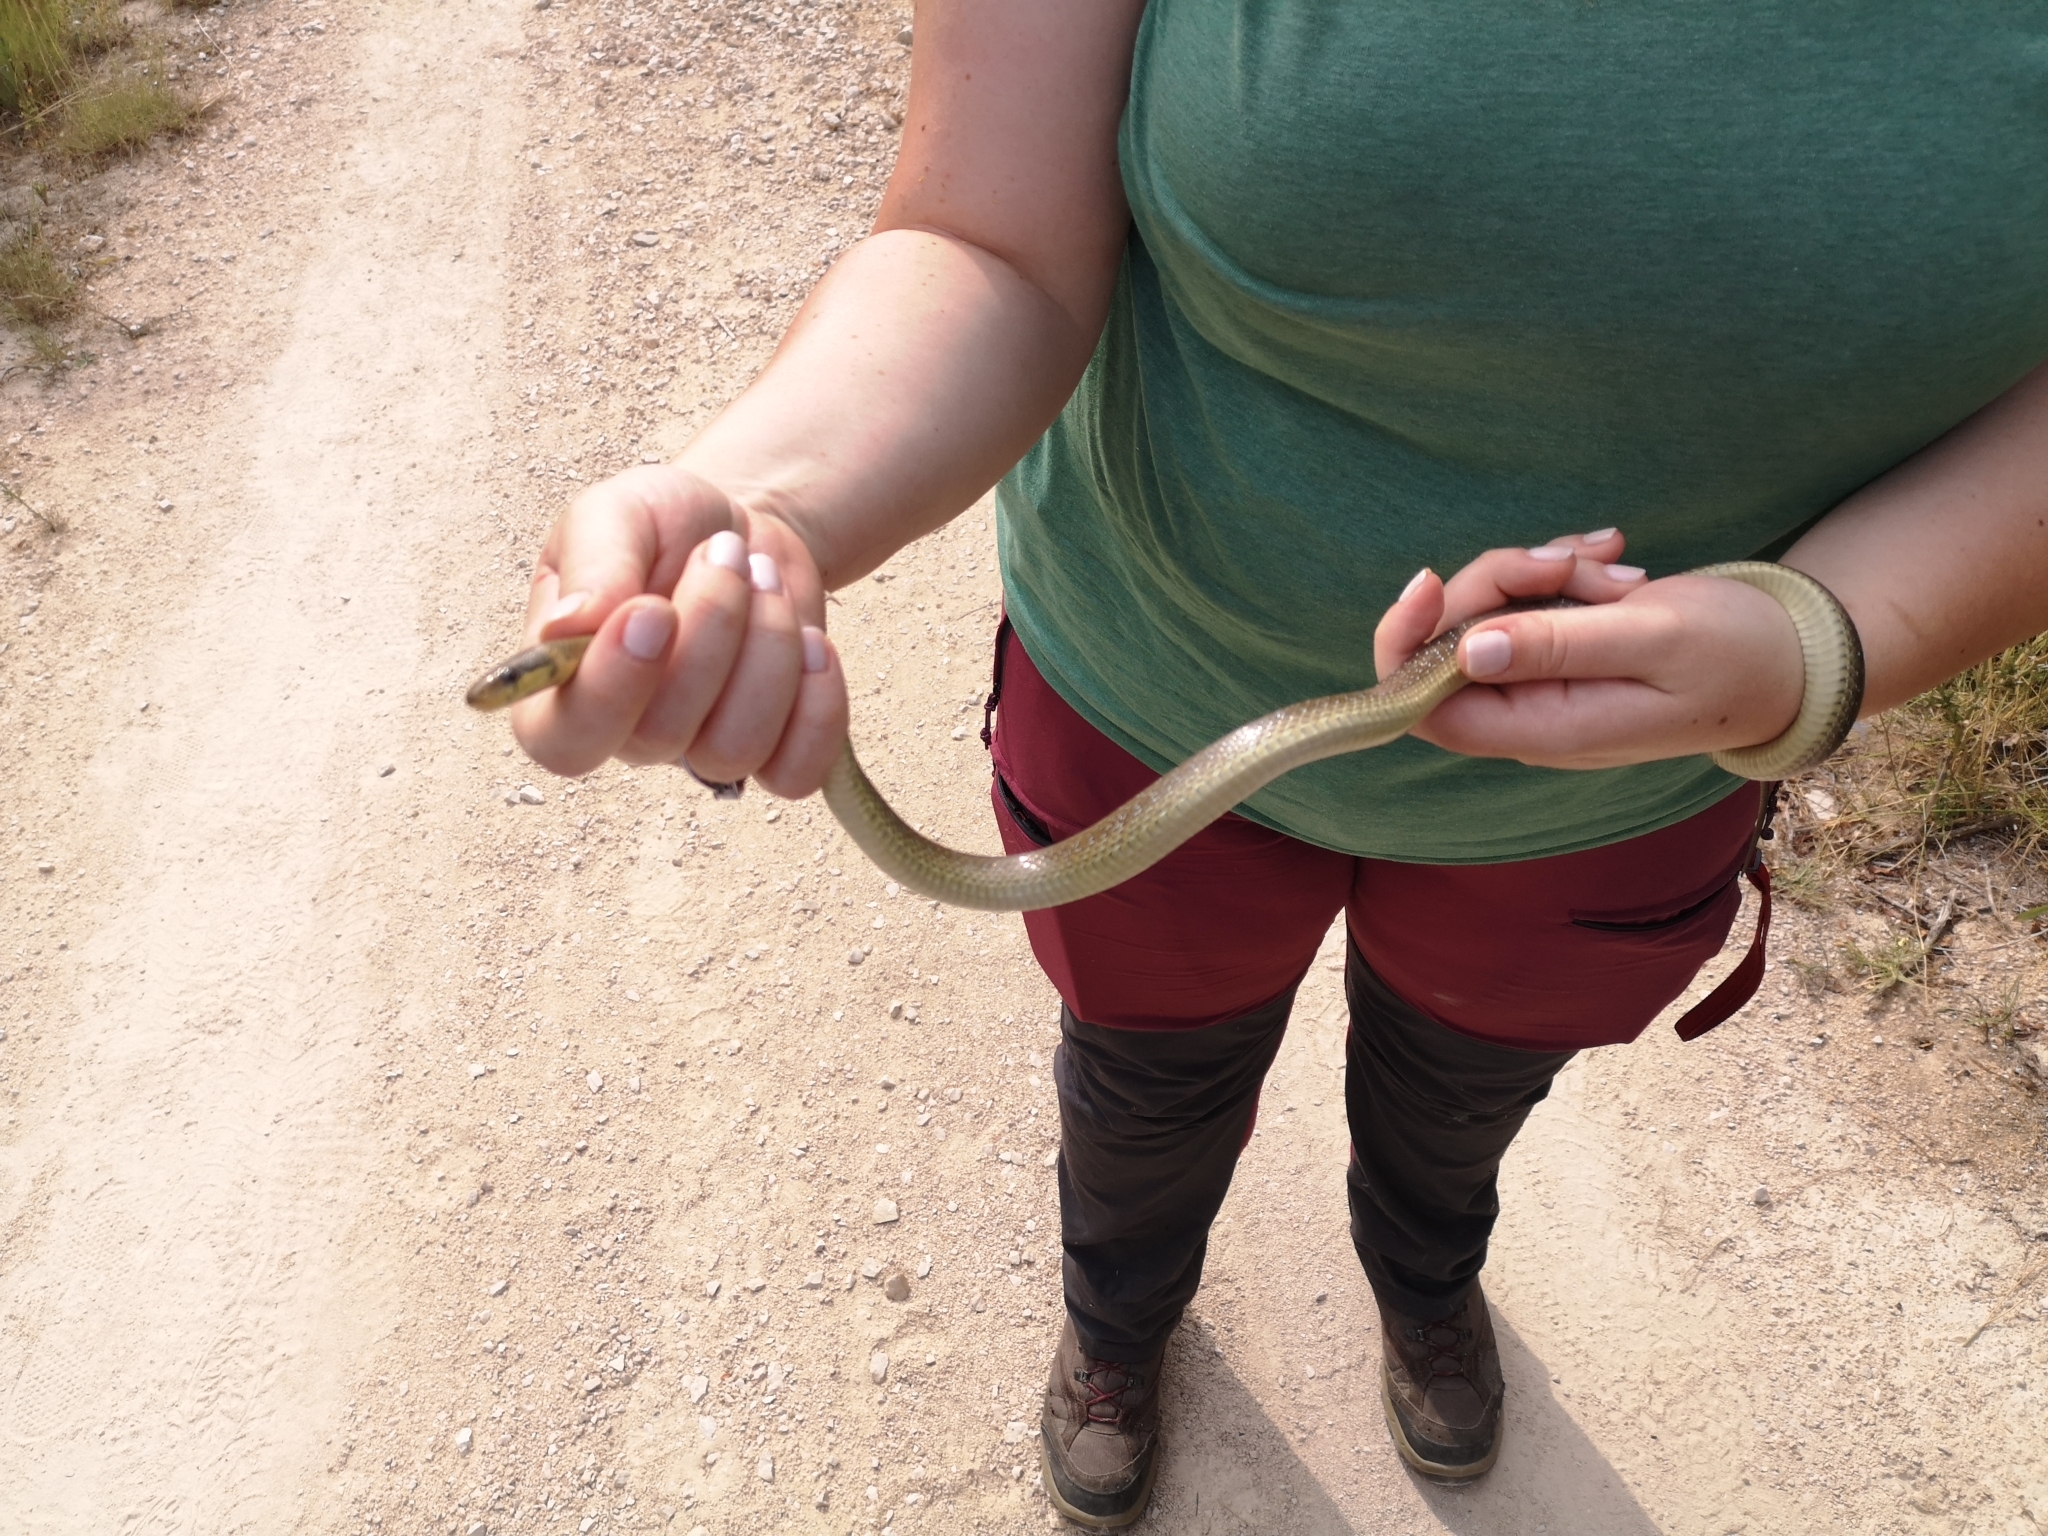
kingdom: Animalia
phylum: Chordata
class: Squamata
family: Colubridae
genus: Zamenis
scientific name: Zamenis longissimus
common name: Aesculapean snake
